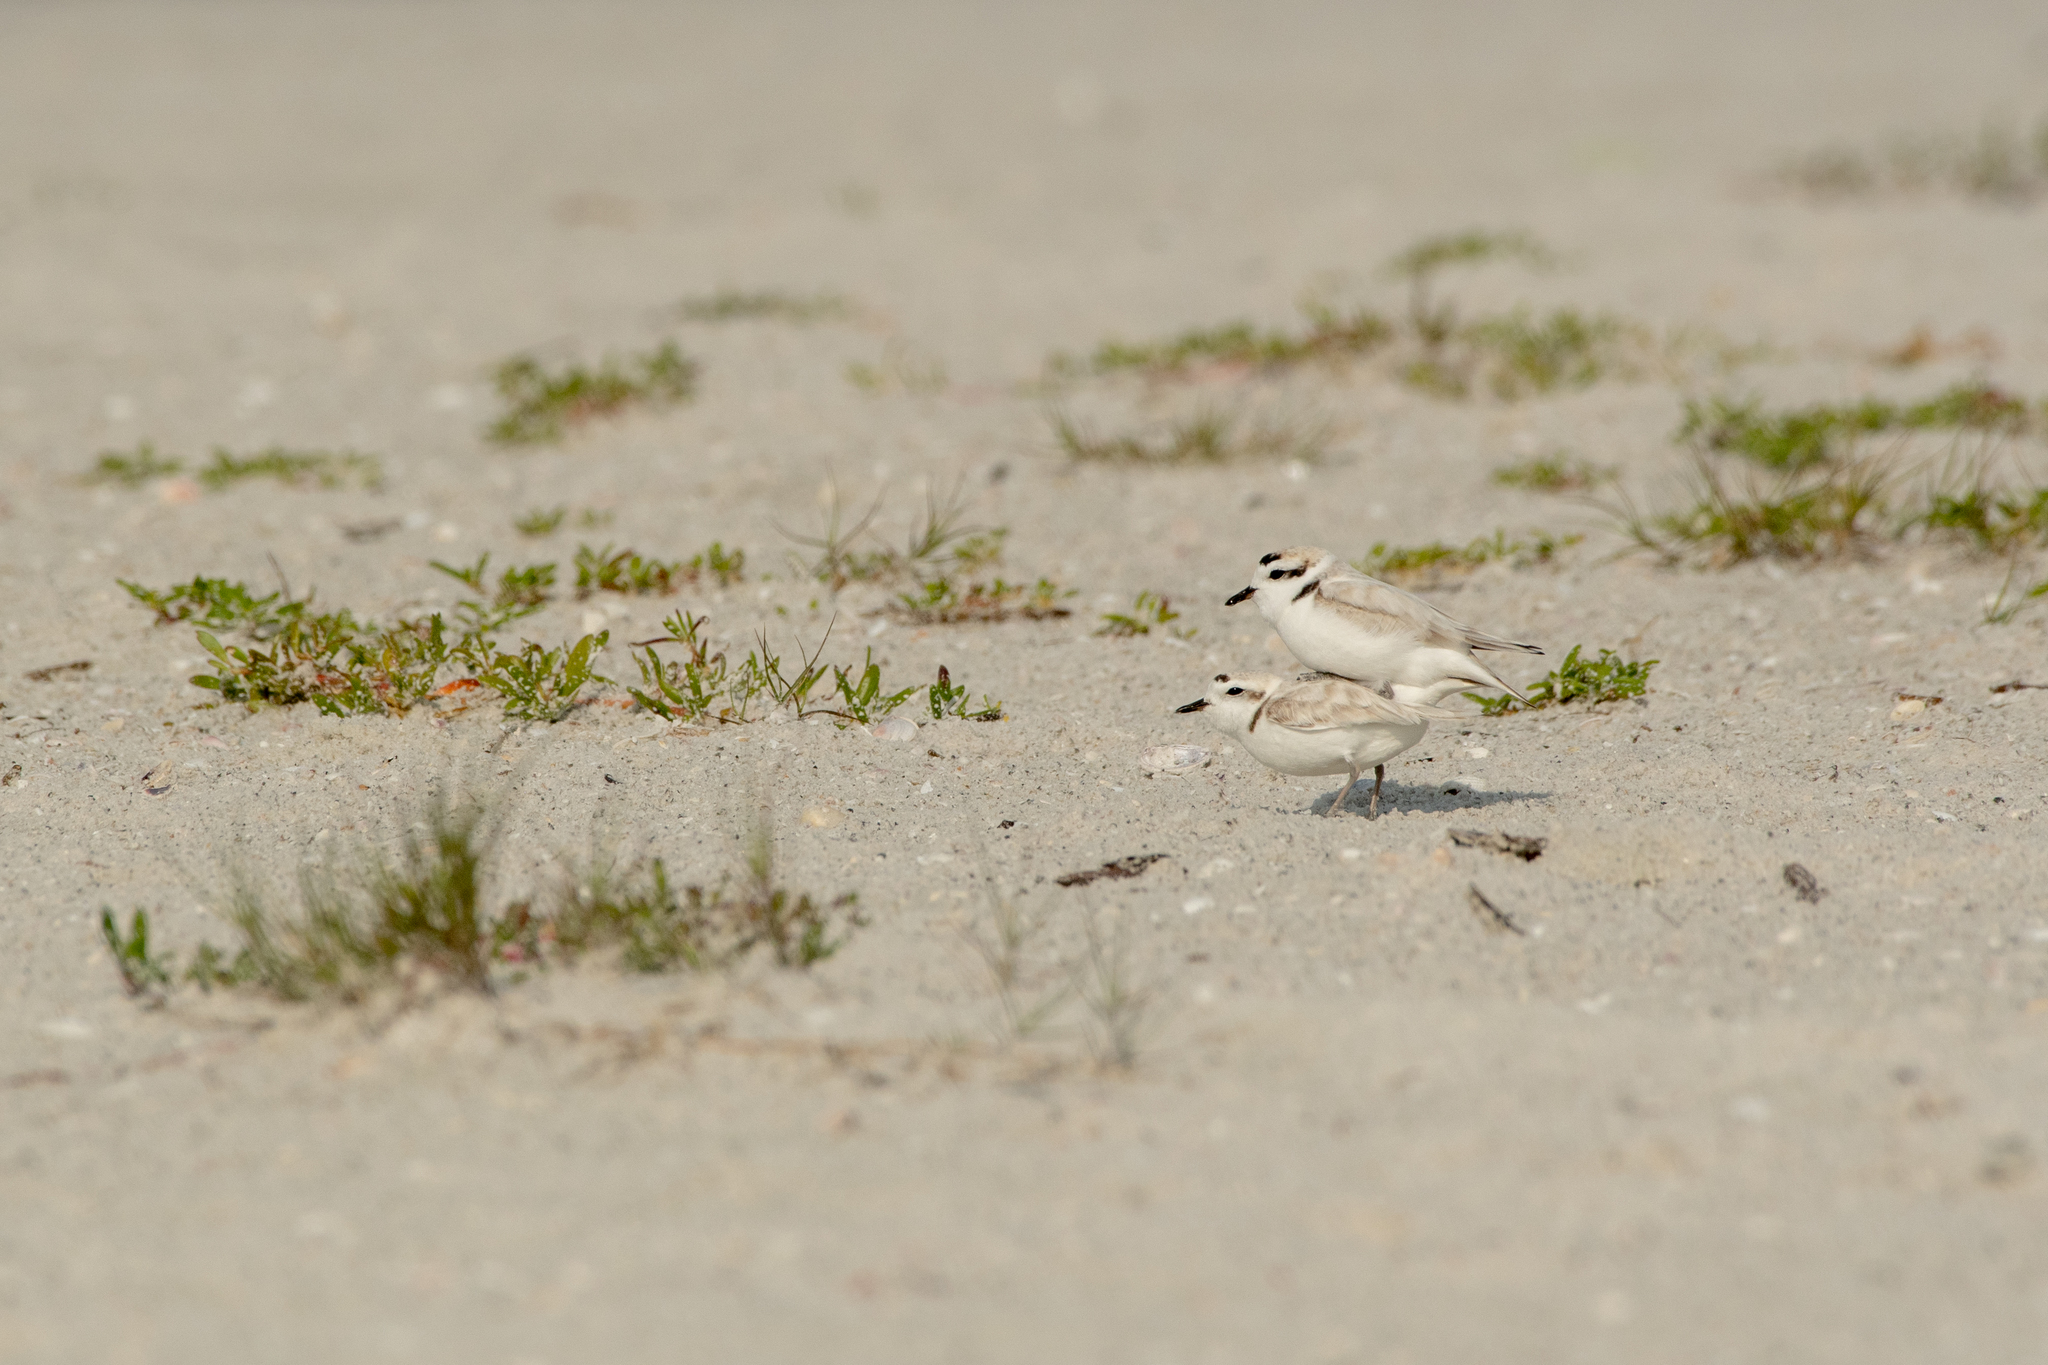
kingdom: Animalia
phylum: Chordata
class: Aves
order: Charadriiformes
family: Charadriidae
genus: Anarhynchus
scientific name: Anarhynchus
